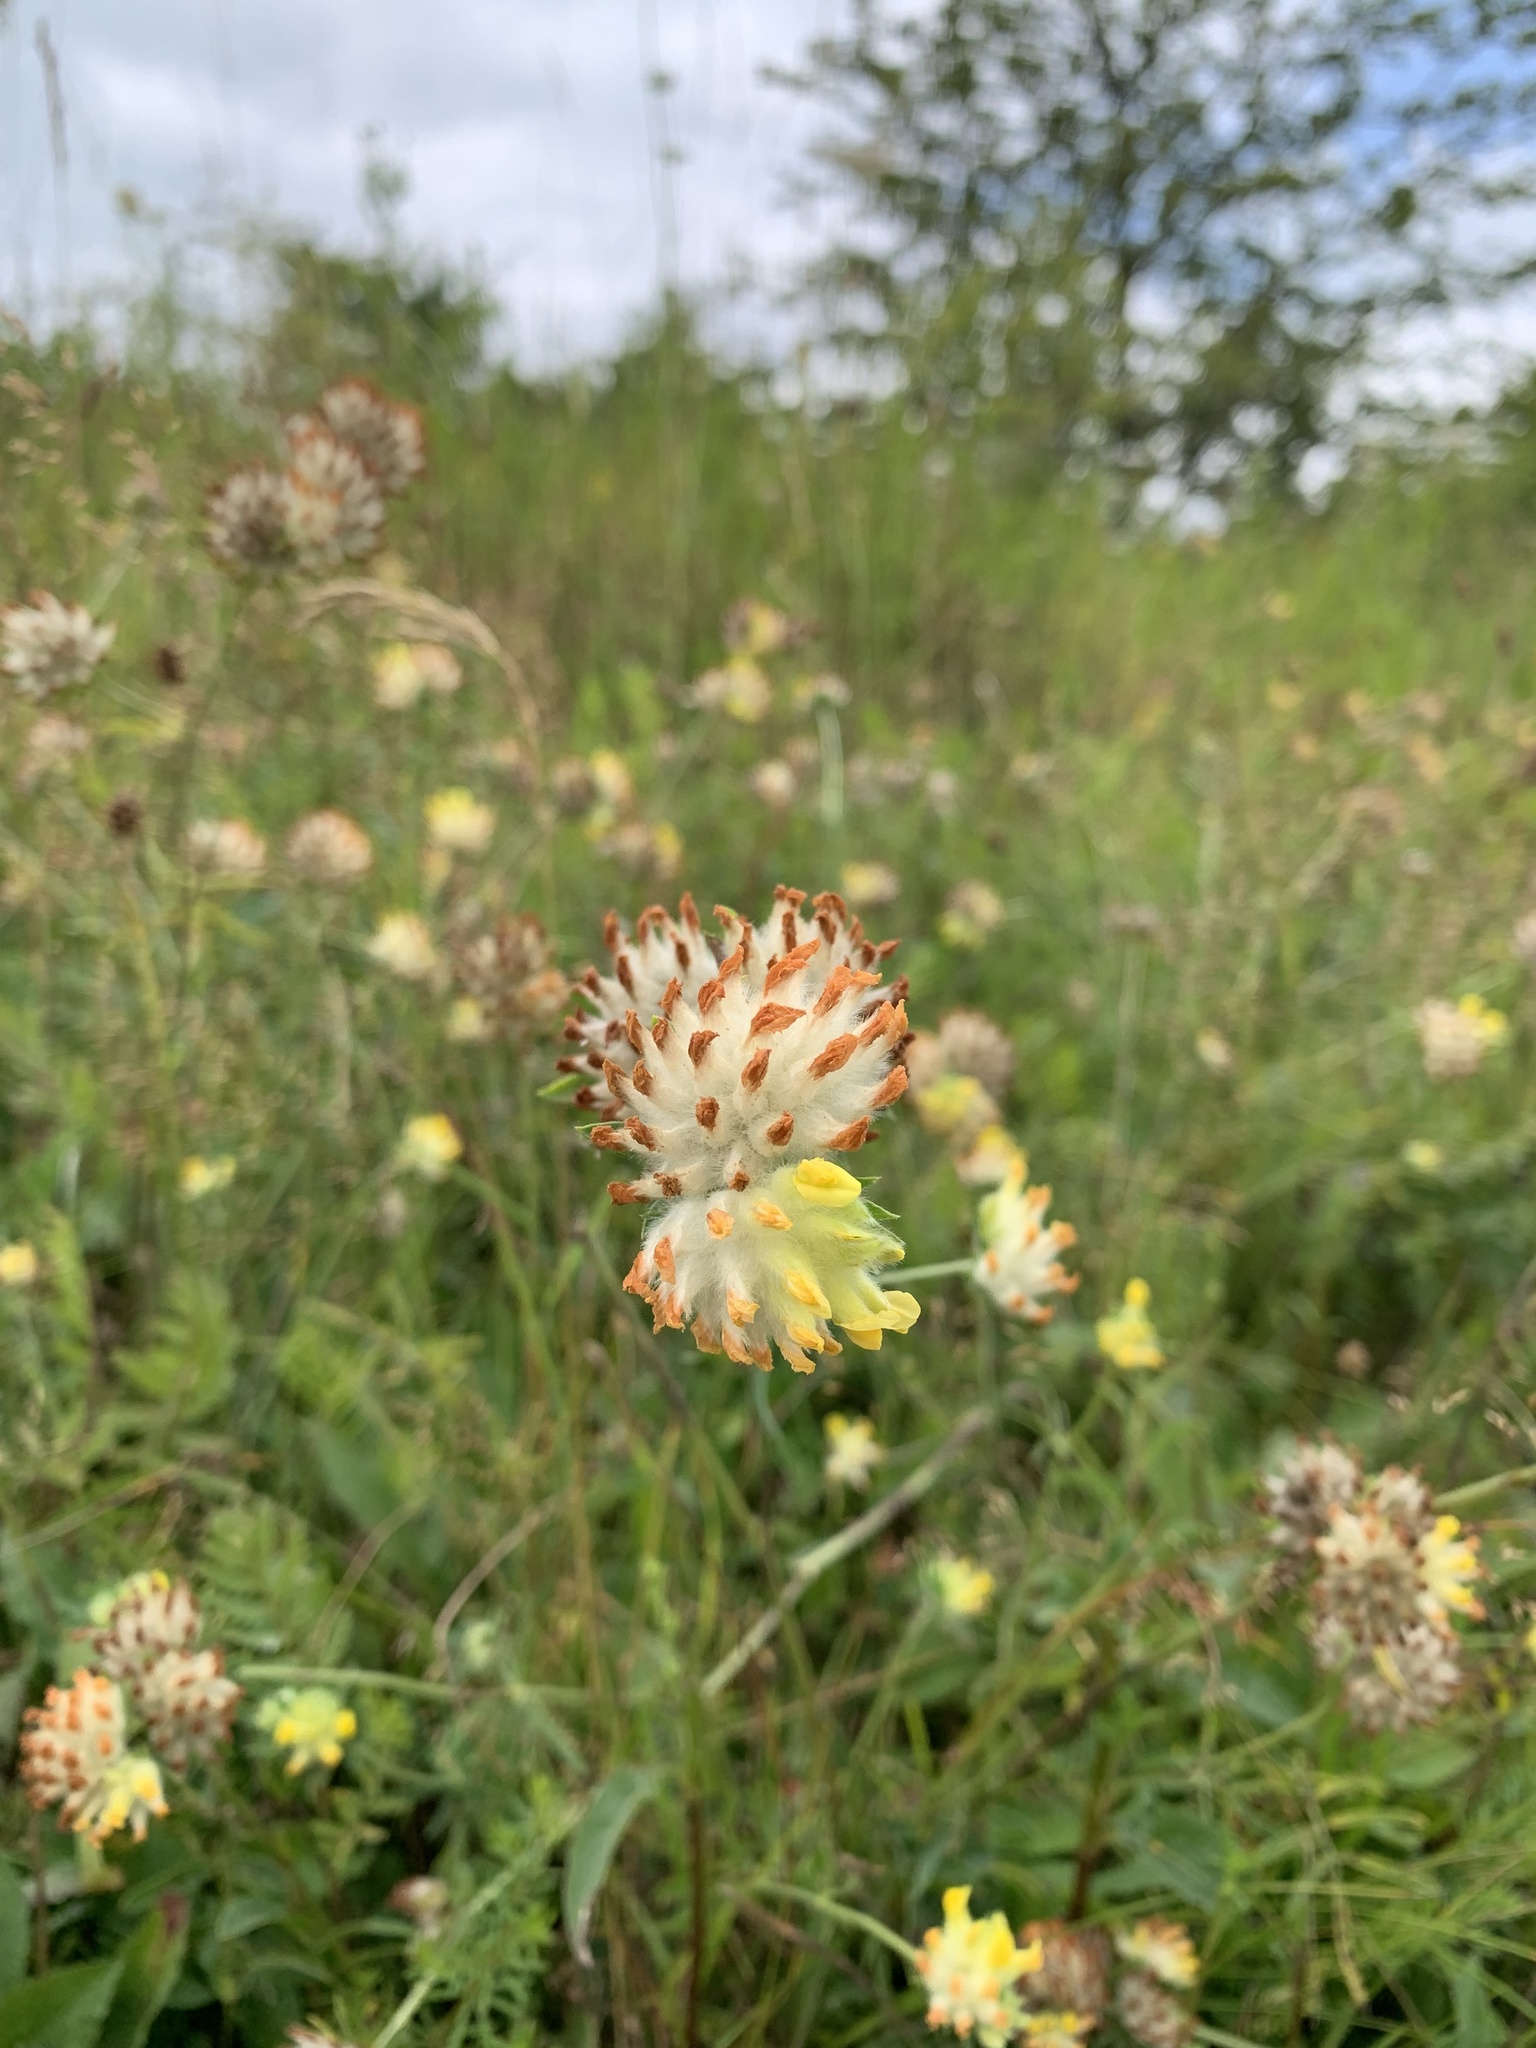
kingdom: Plantae
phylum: Tracheophyta
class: Magnoliopsida
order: Fabales
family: Fabaceae
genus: Anthyllis
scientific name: Anthyllis vulneraria
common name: Kidney vetch
